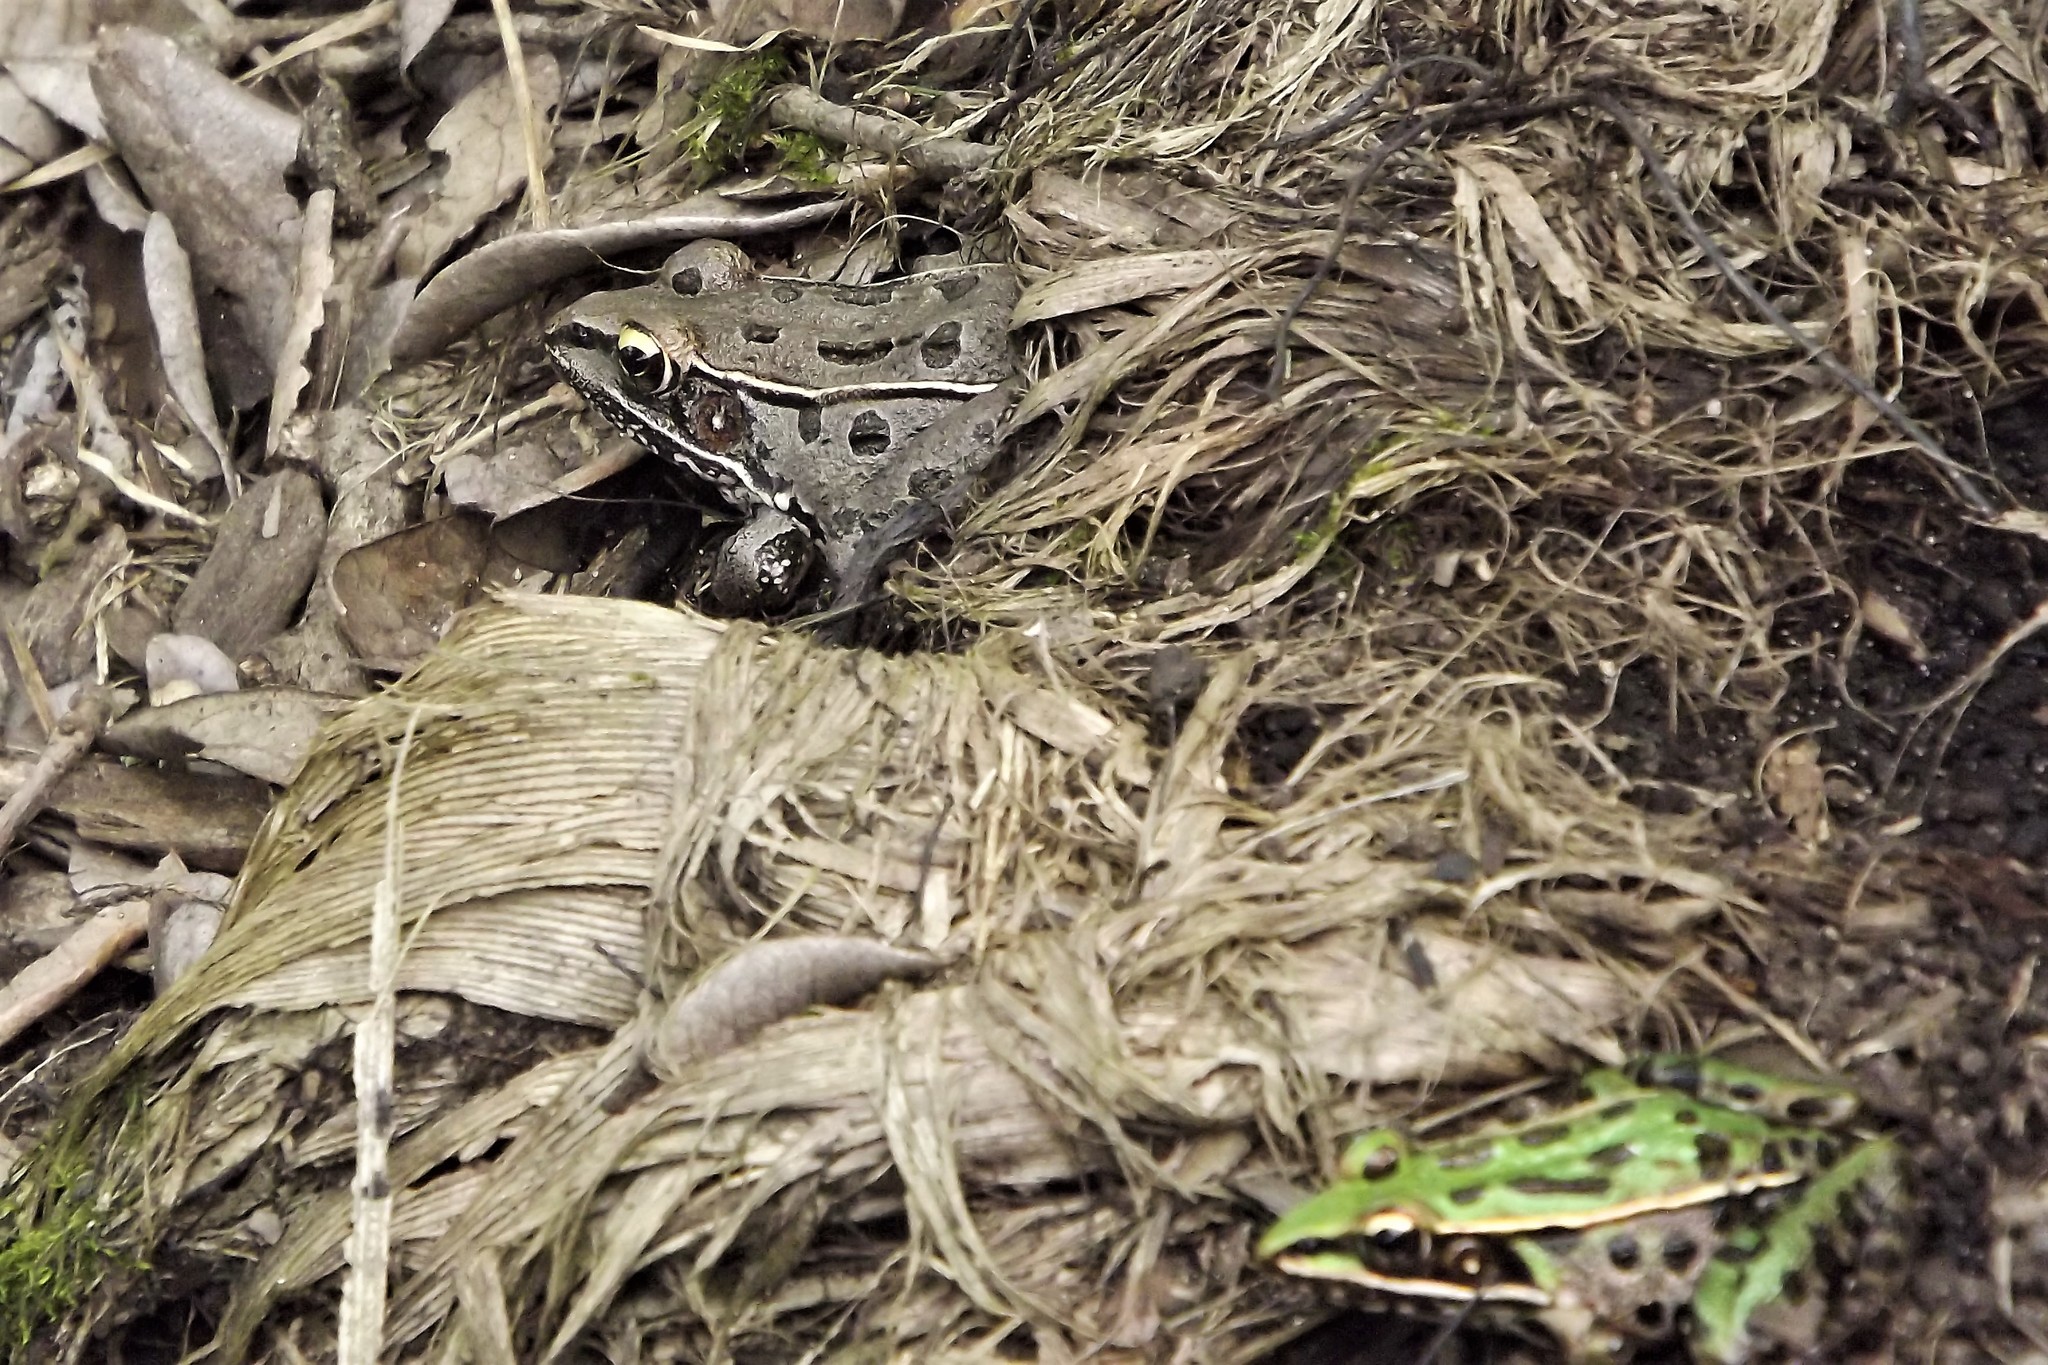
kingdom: Animalia
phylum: Chordata
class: Amphibia
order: Anura
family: Ranidae
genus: Lithobates
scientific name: Lithobates sphenocephalus
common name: Southern leopard frog
